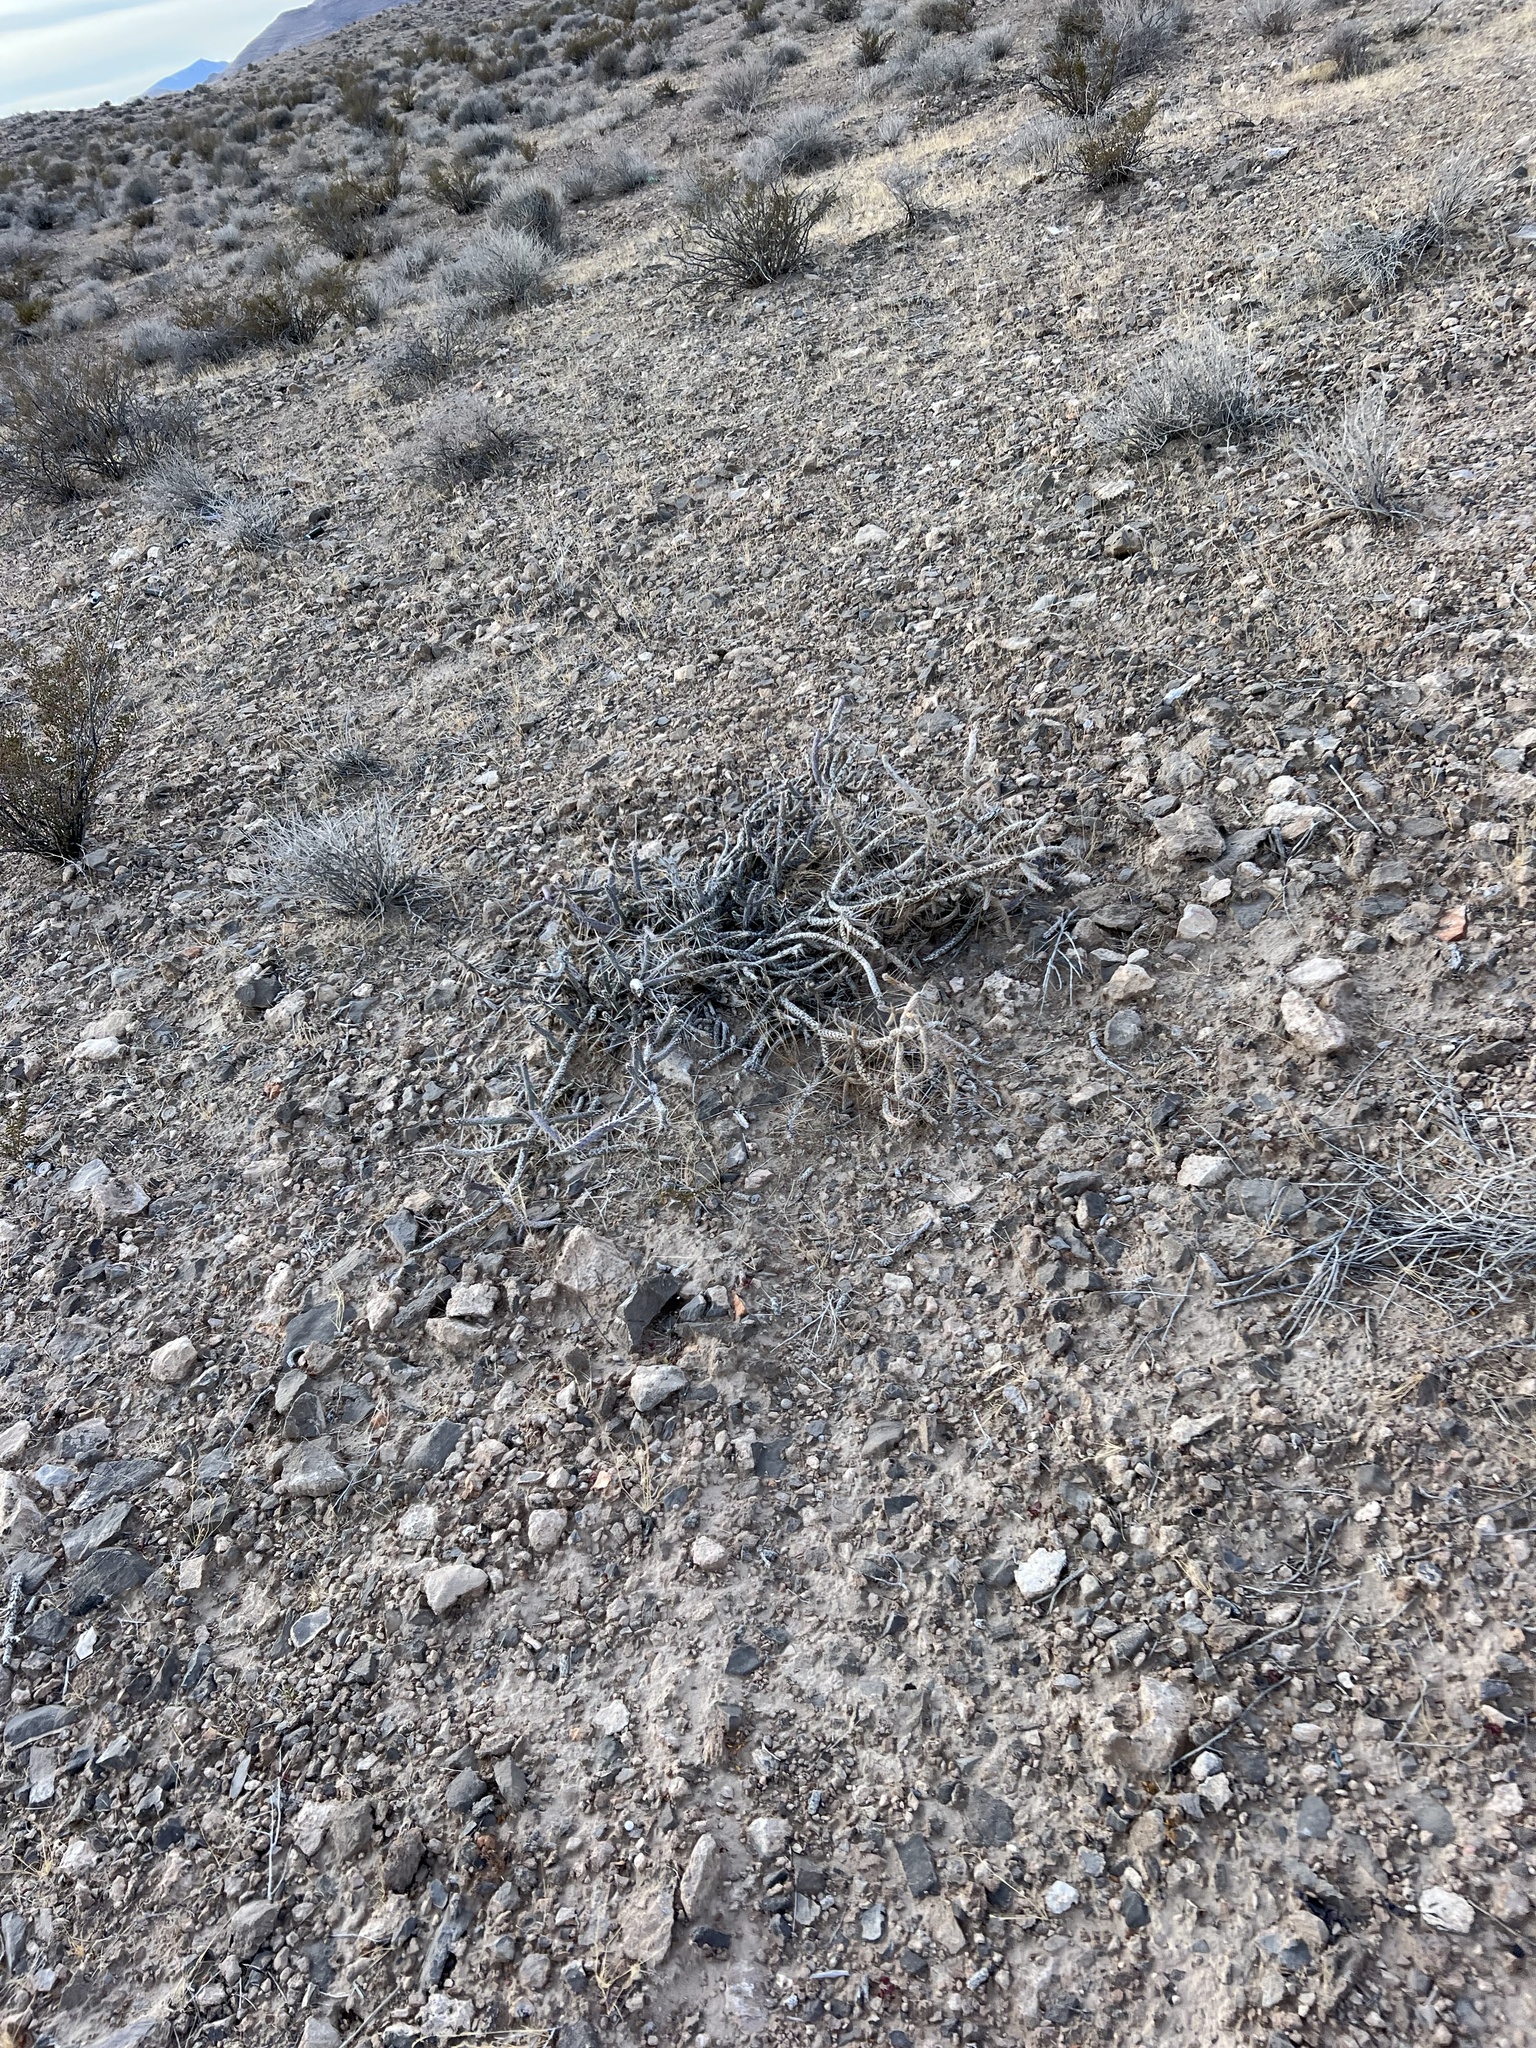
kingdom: Plantae
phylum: Tracheophyta
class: Magnoliopsida
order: Caryophyllales
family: Cactaceae
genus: Cylindropuntia
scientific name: Cylindropuntia ramosissima
